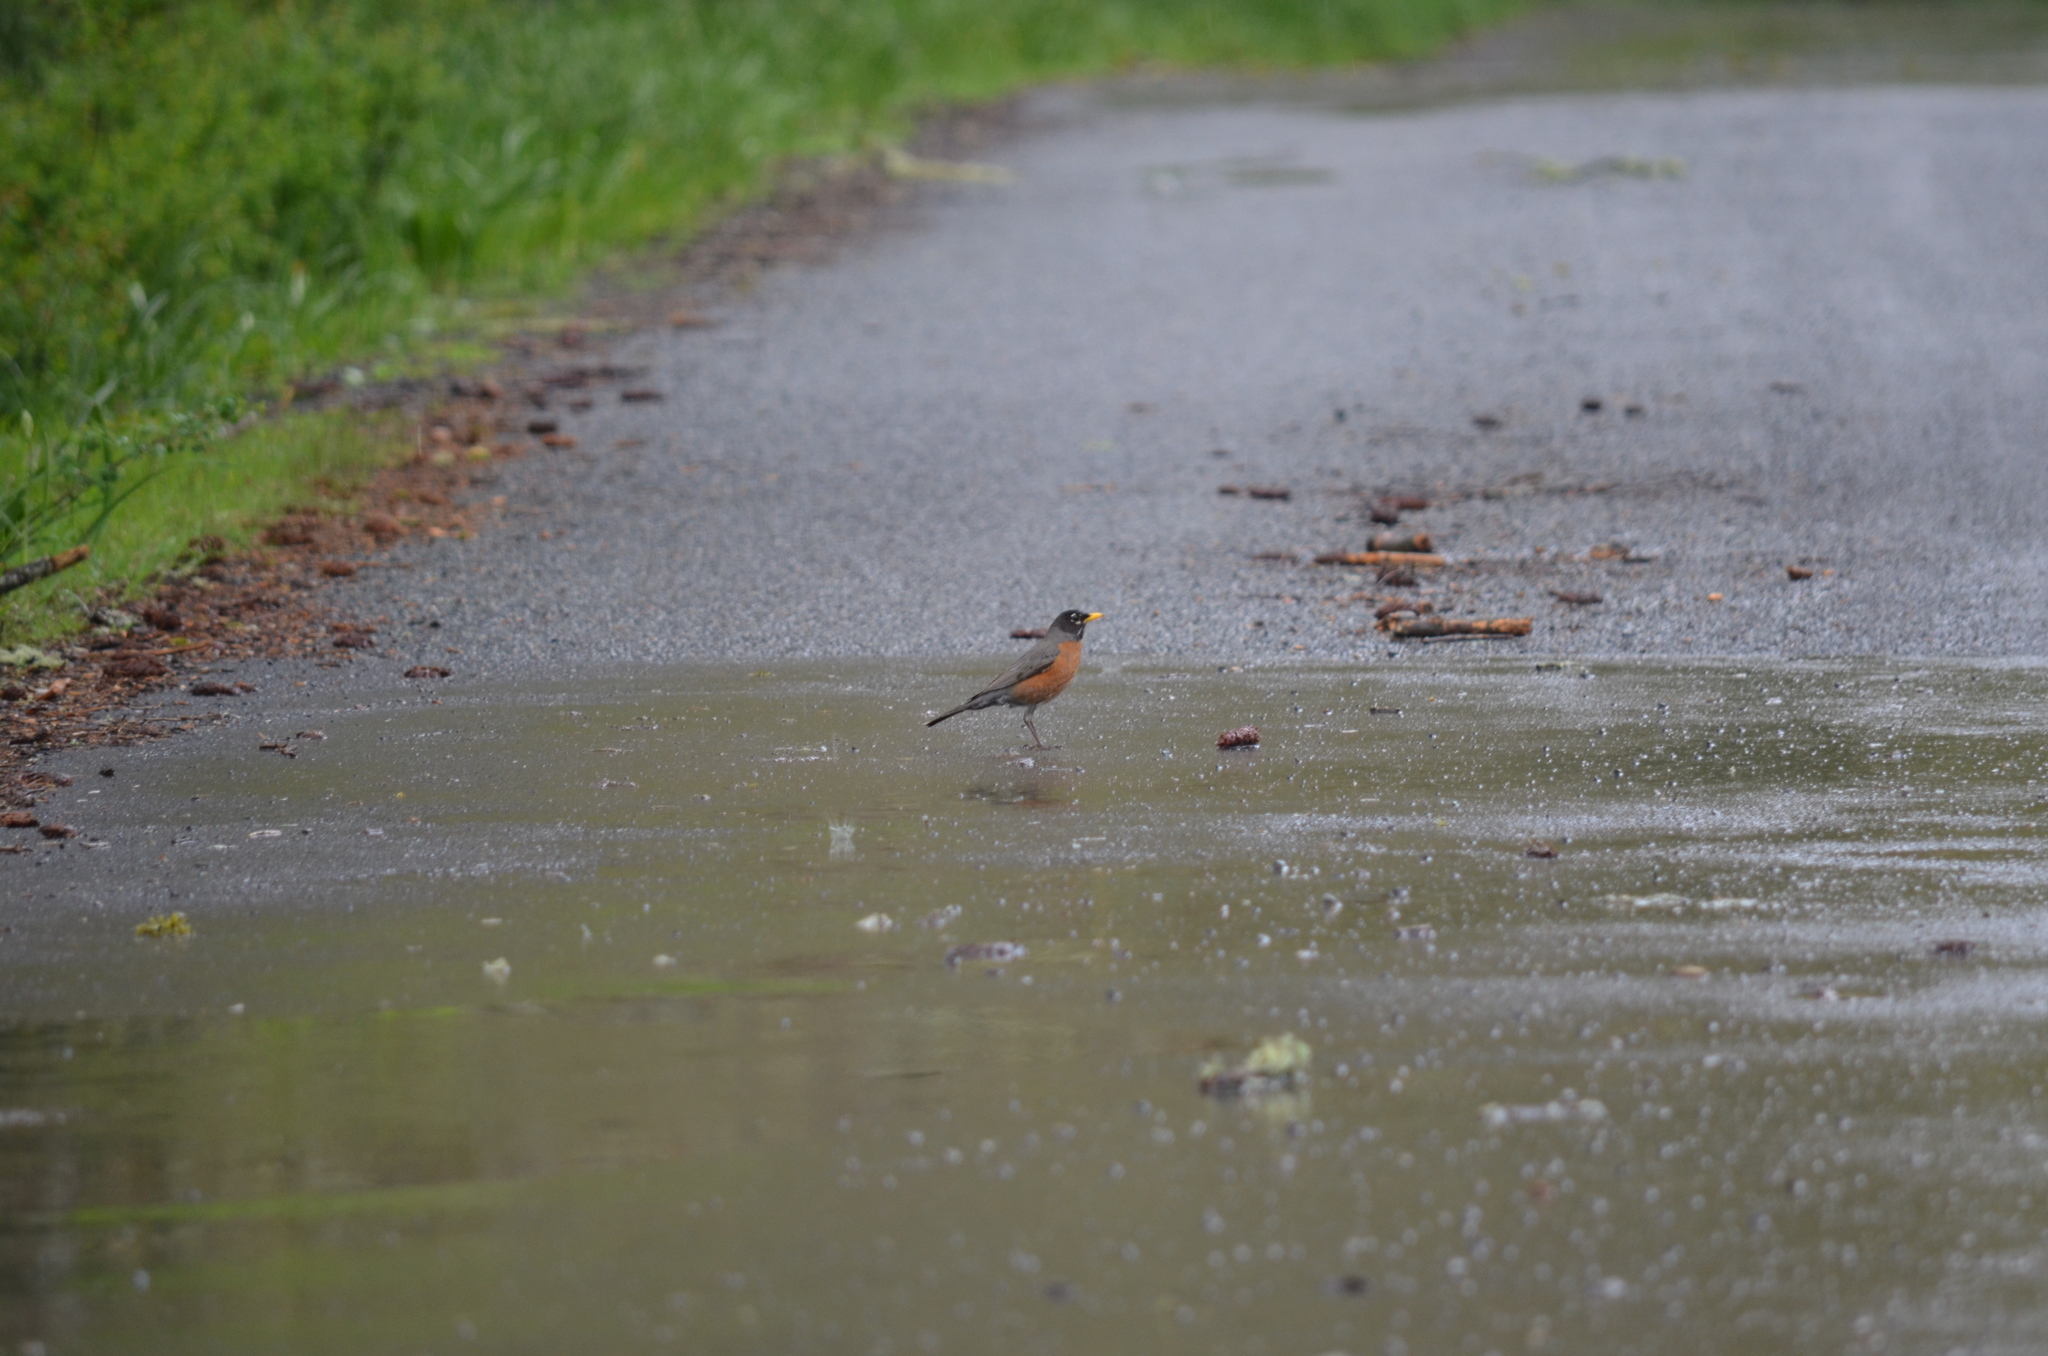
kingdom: Animalia
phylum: Chordata
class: Aves
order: Passeriformes
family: Turdidae
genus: Turdus
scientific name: Turdus migratorius
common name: American robin
